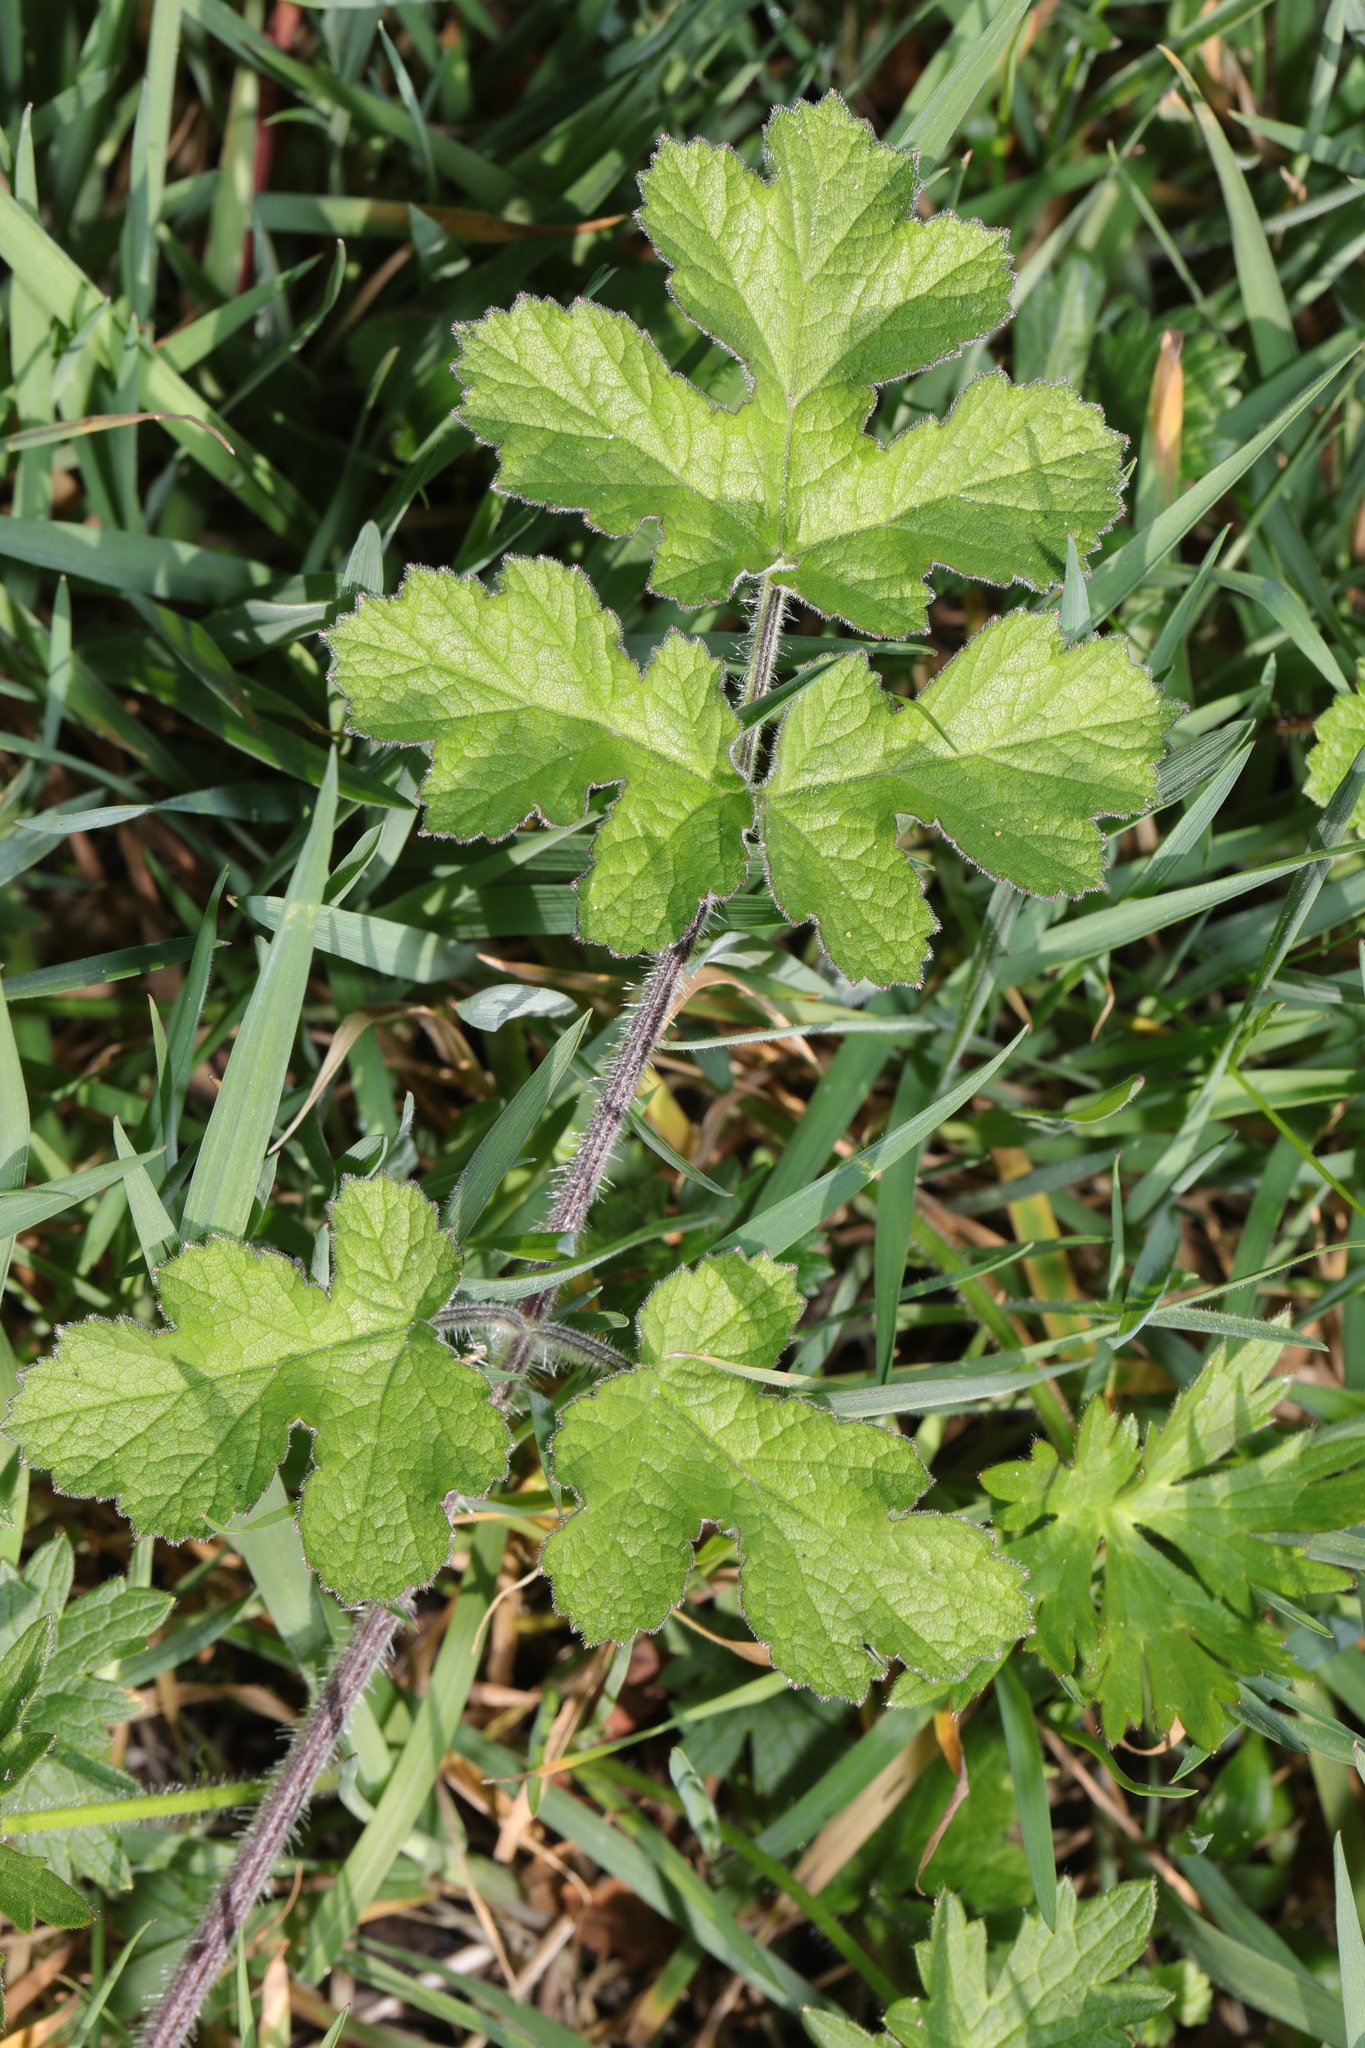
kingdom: Plantae
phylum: Tracheophyta
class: Magnoliopsida
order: Apiales
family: Apiaceae
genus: Heracleum
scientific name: Heracleum sphondylium
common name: Hogweed
